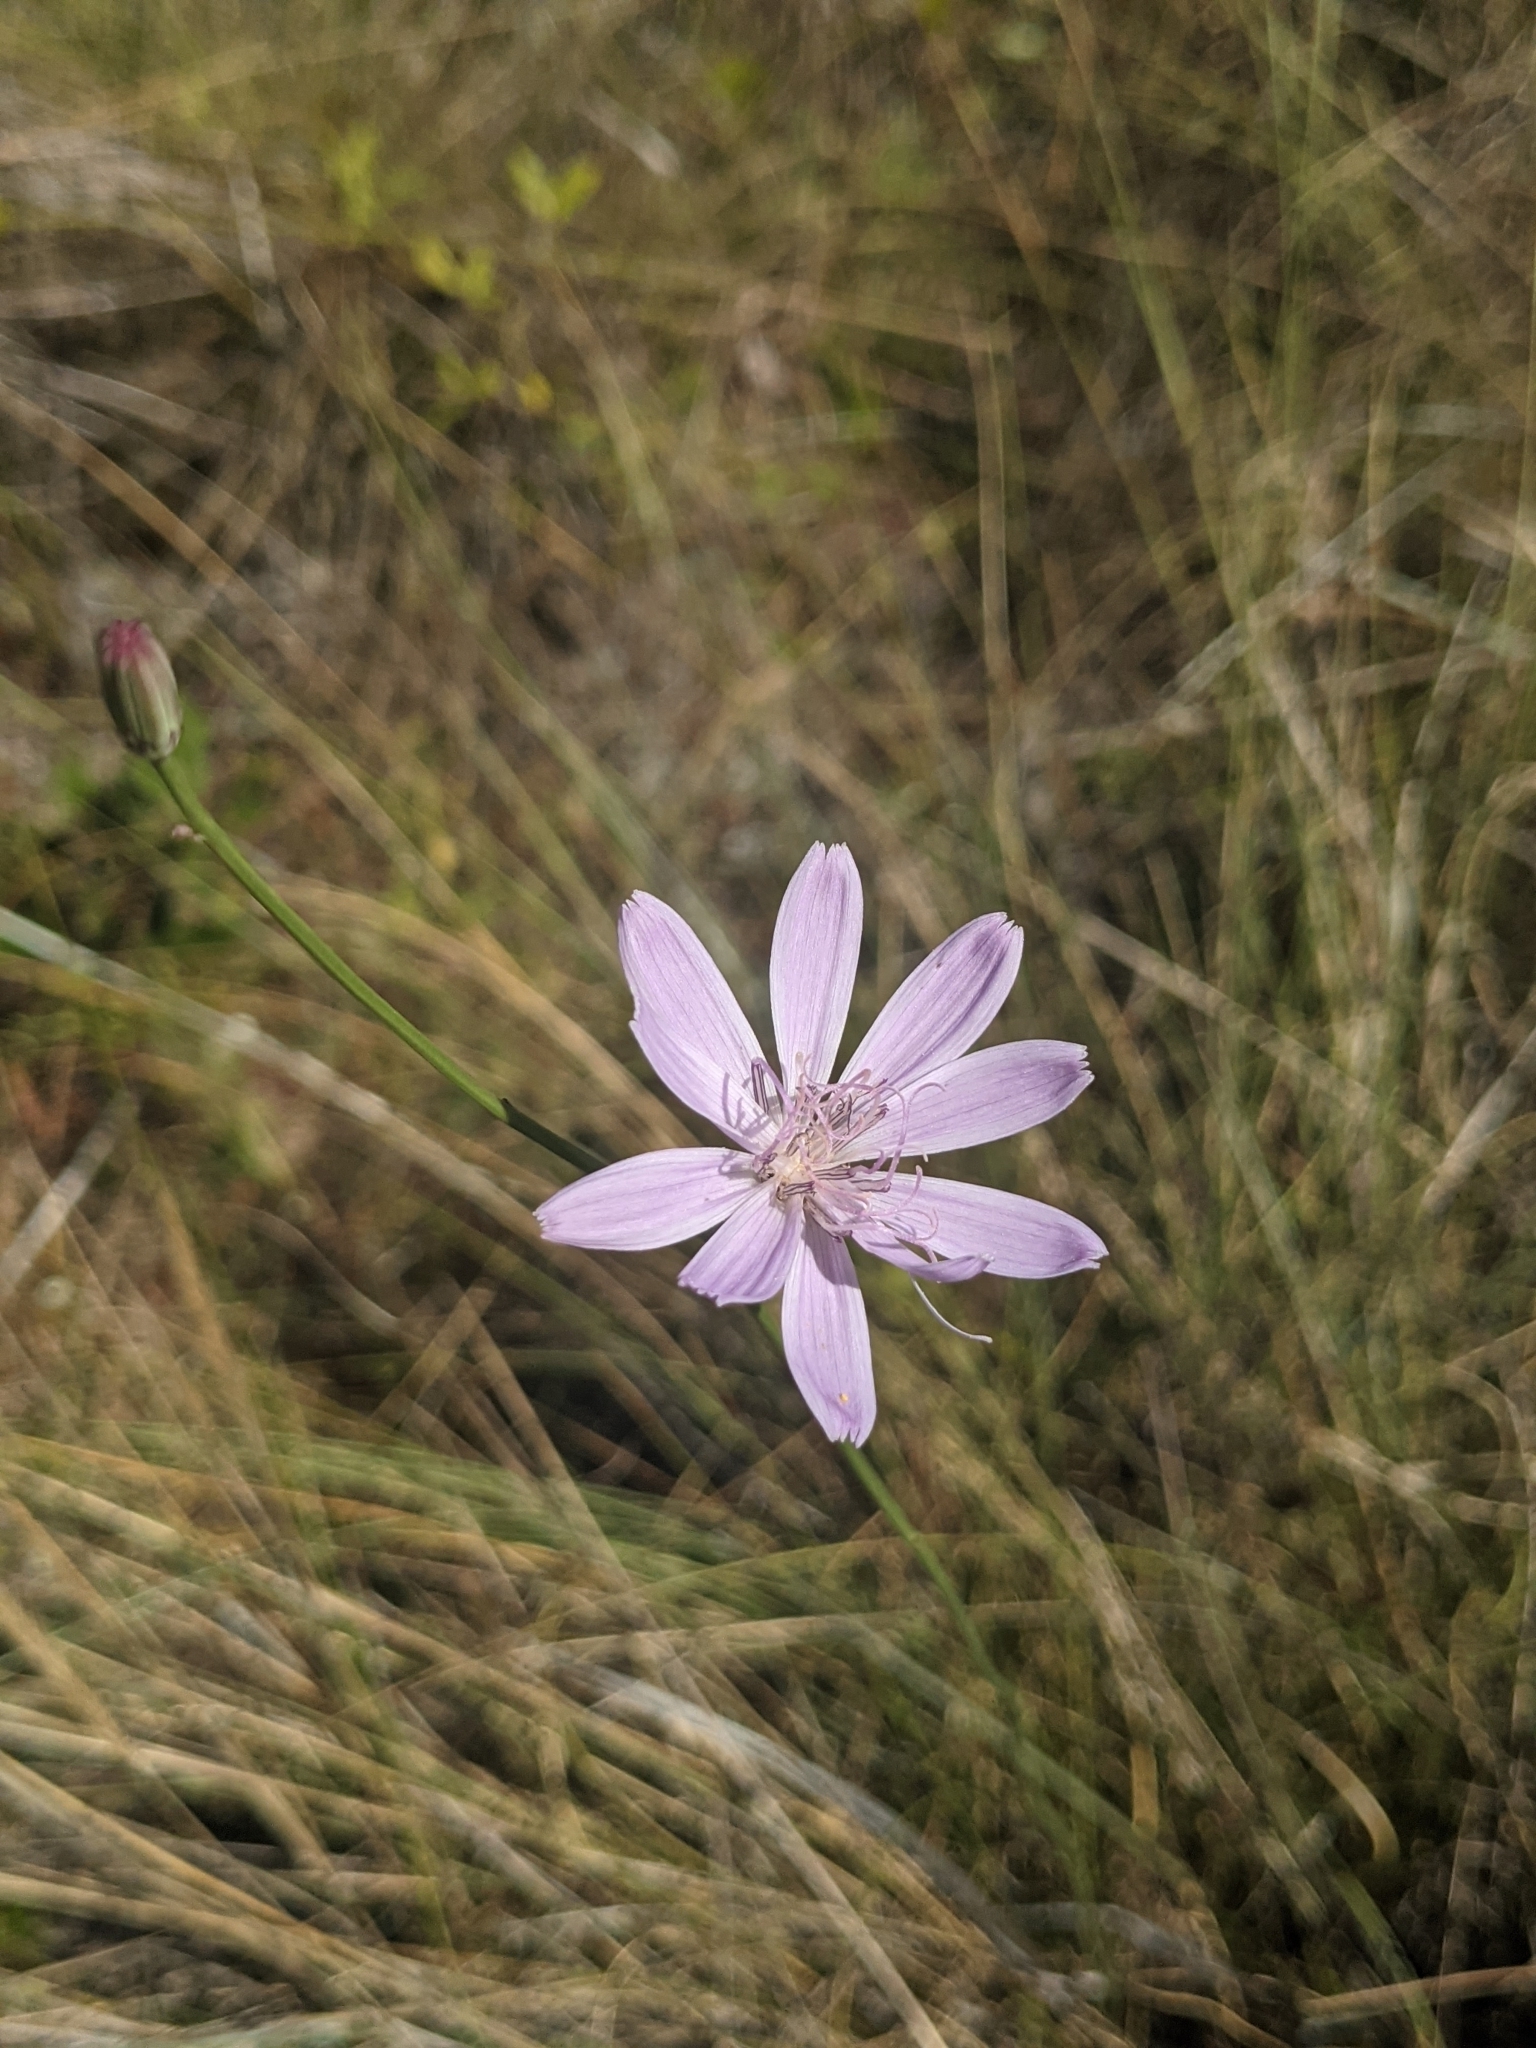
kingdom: Plantae
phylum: Tracheophyta
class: Magnoliopsida
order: Asterales
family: Asteraceae
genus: Lygodesmia
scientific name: Lygodesmia aphylla
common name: Rose-rush
